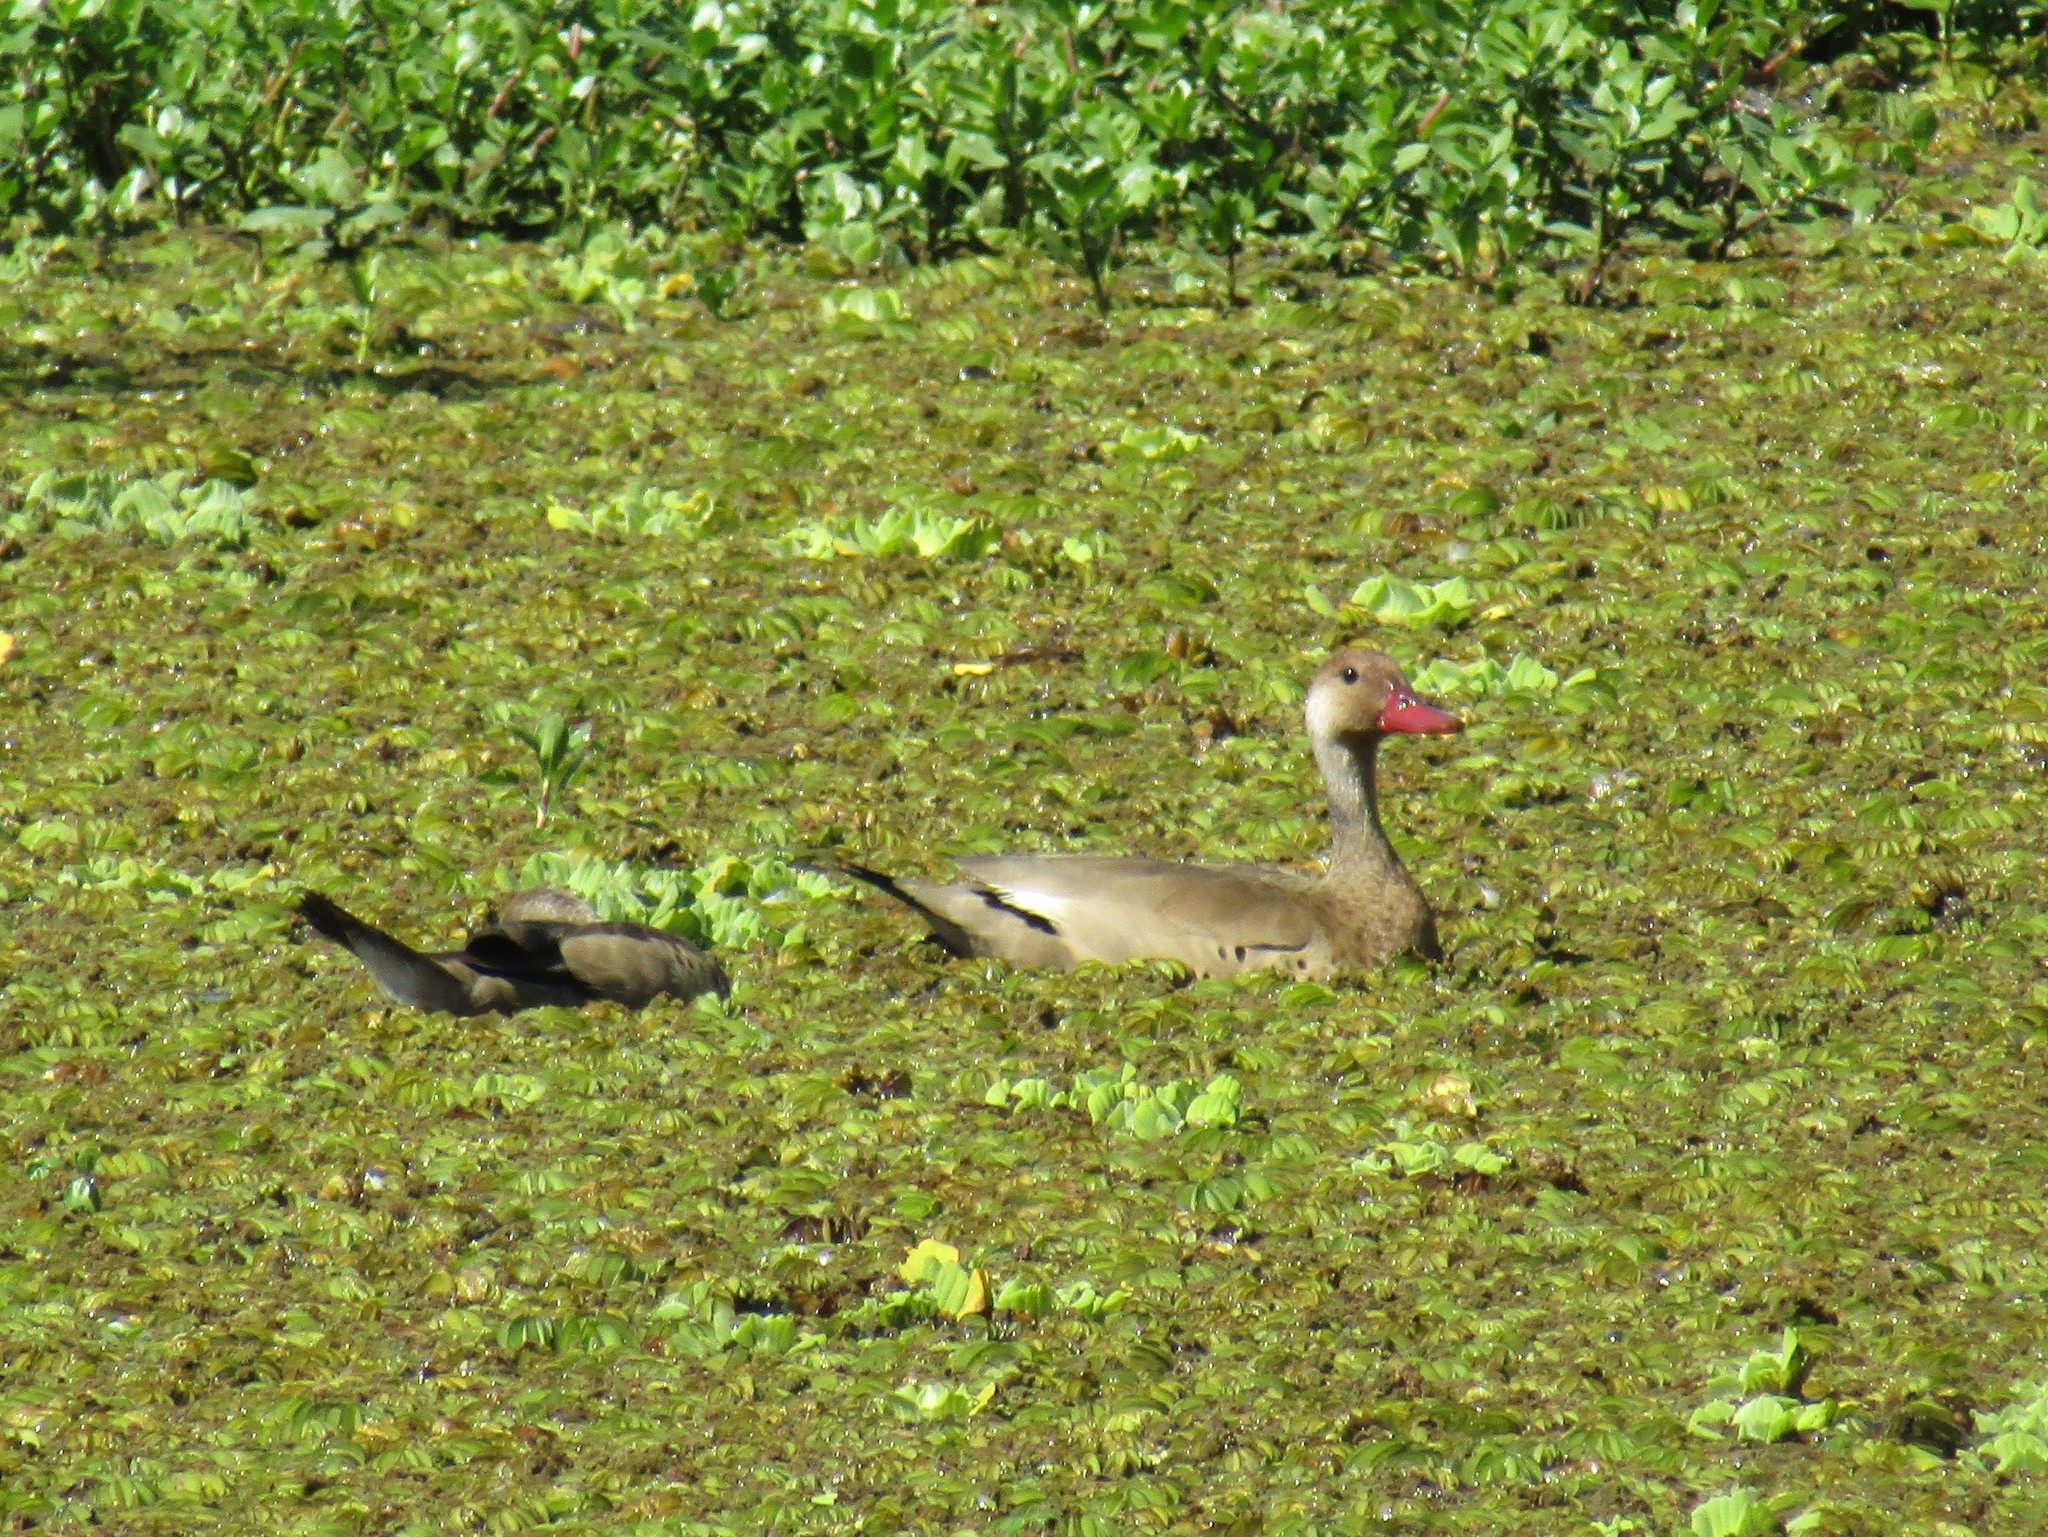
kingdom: Animalia
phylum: Chordata
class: Aves
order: Anseriformes
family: Anatidae
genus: Amazonetta
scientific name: Amazonetta brasiliensis
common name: Brazilian teal
